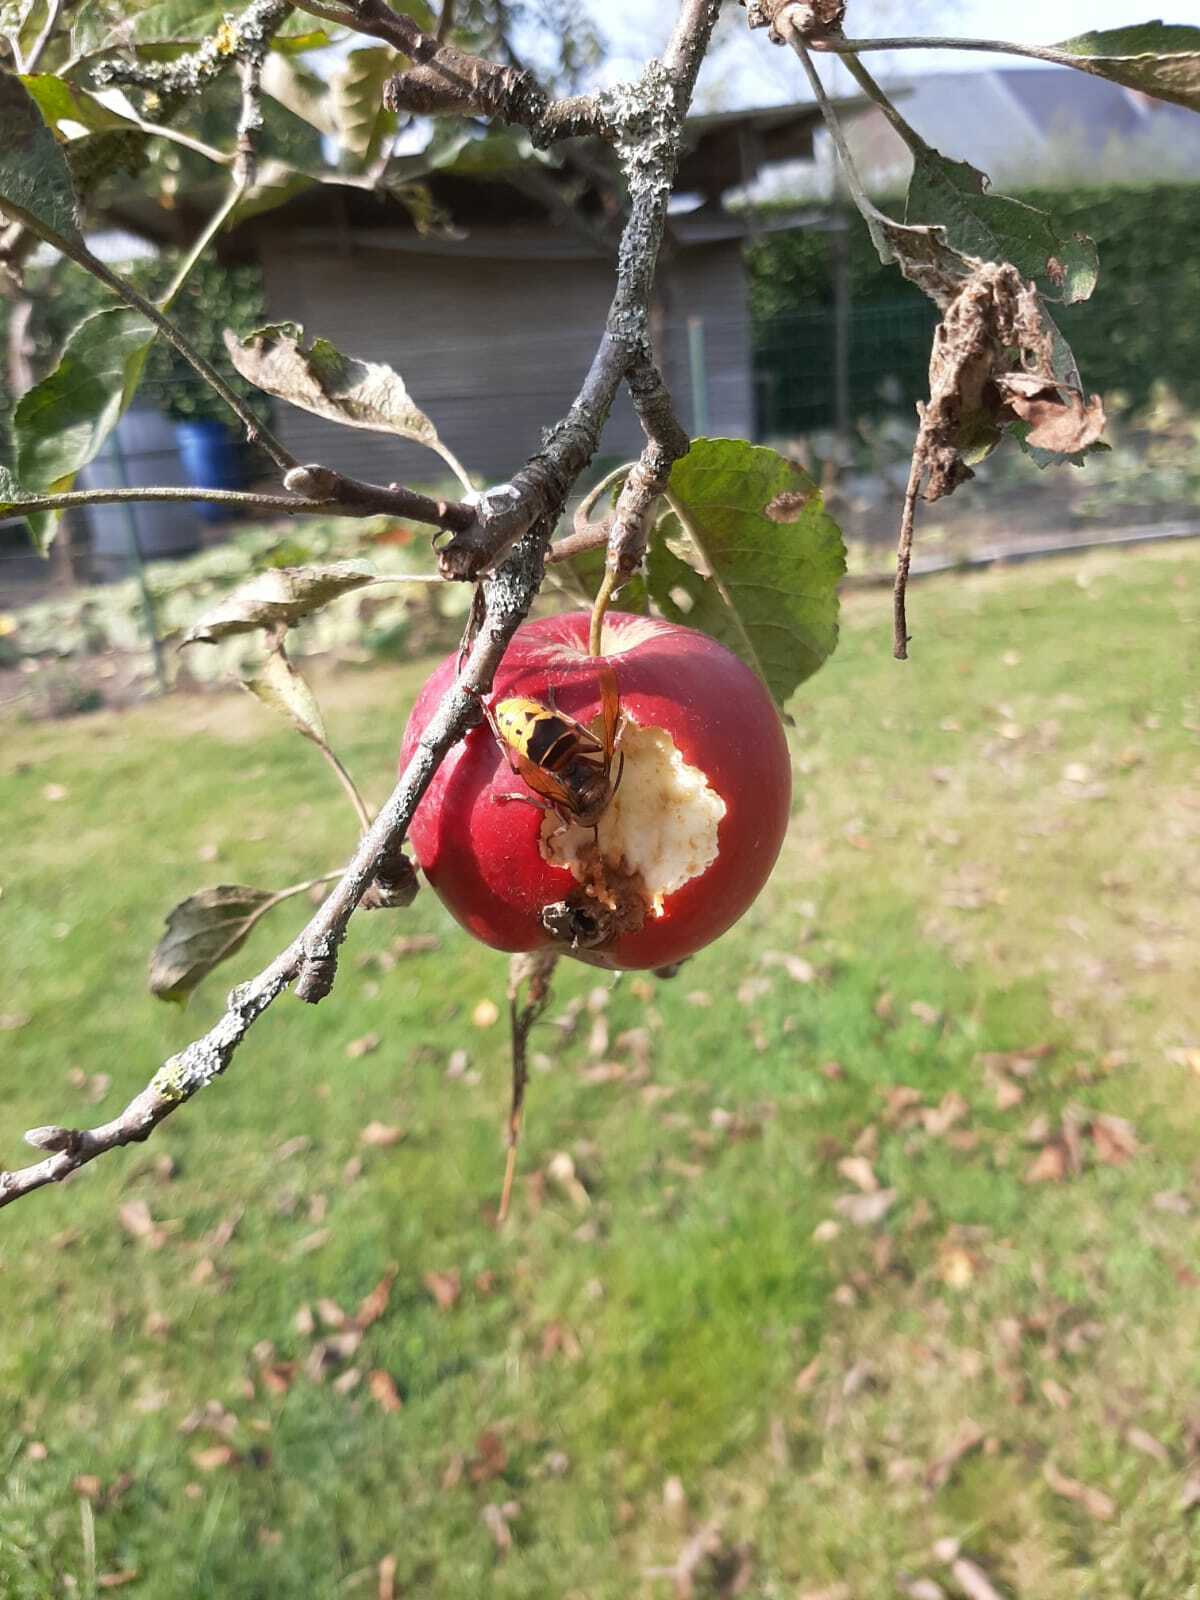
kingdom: Animalia
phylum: Arthropoda
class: Insecta
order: Hymenoptera
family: Vespidae
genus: Vespa
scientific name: Vespa crabro
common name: Hornet
